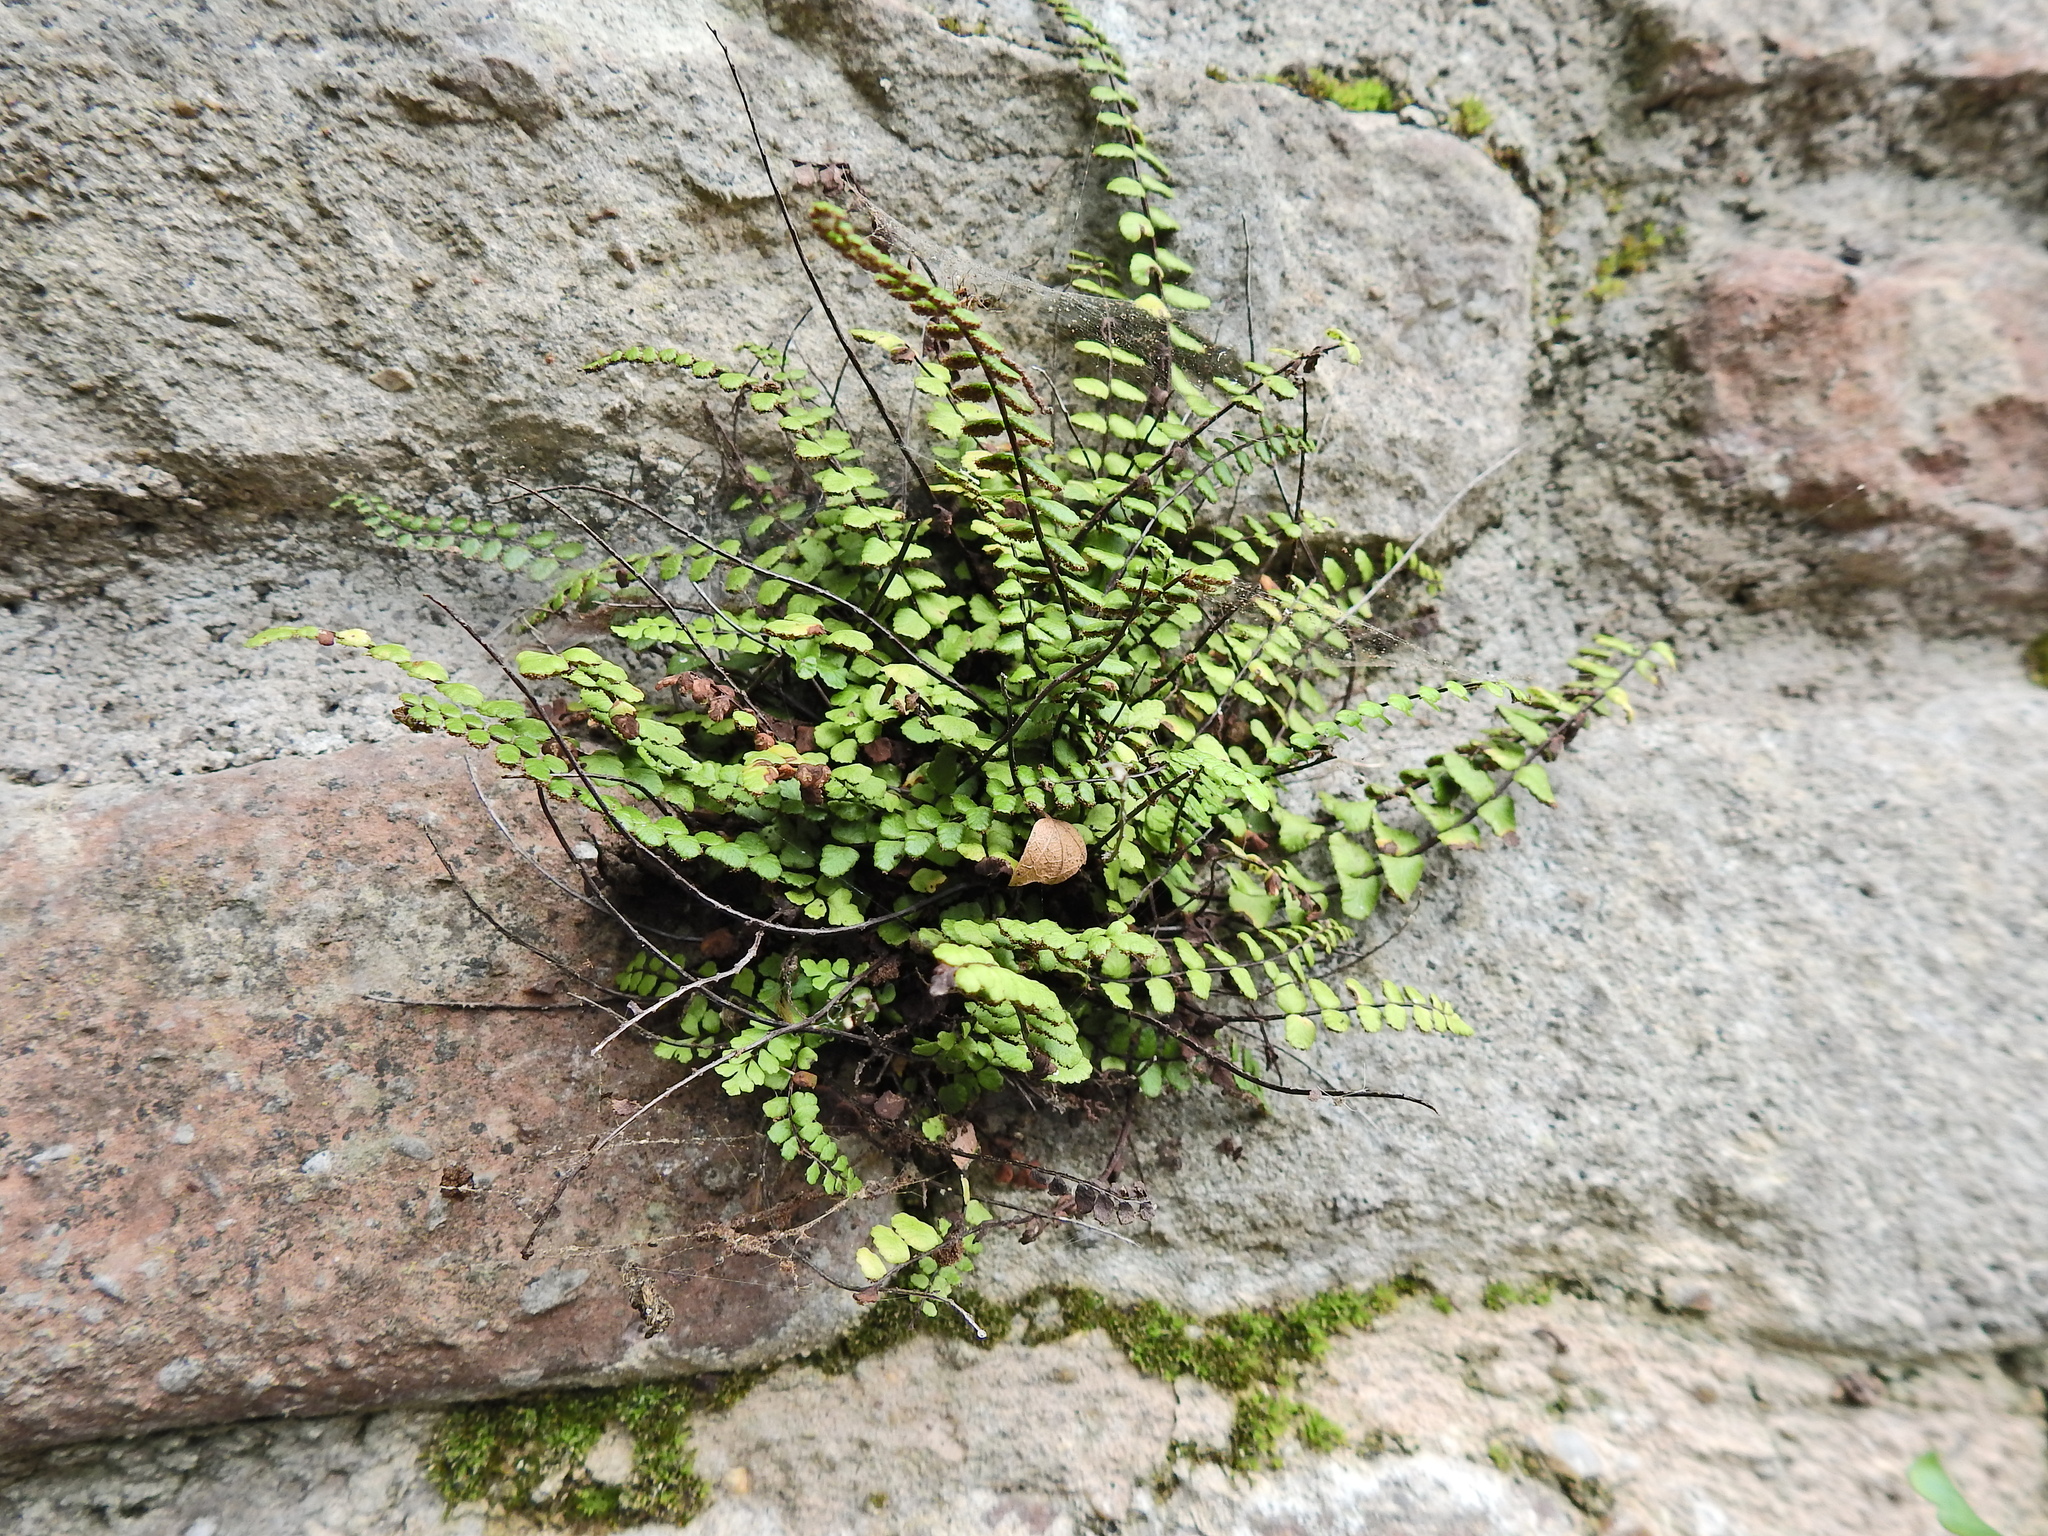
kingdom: Plantae
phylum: Tracheophyta
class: Polypodiopsida
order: Polypodiales
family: Aspleniaceae
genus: Asplenium
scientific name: Asplenium trichomanes
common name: Maidenhair spleenwort
